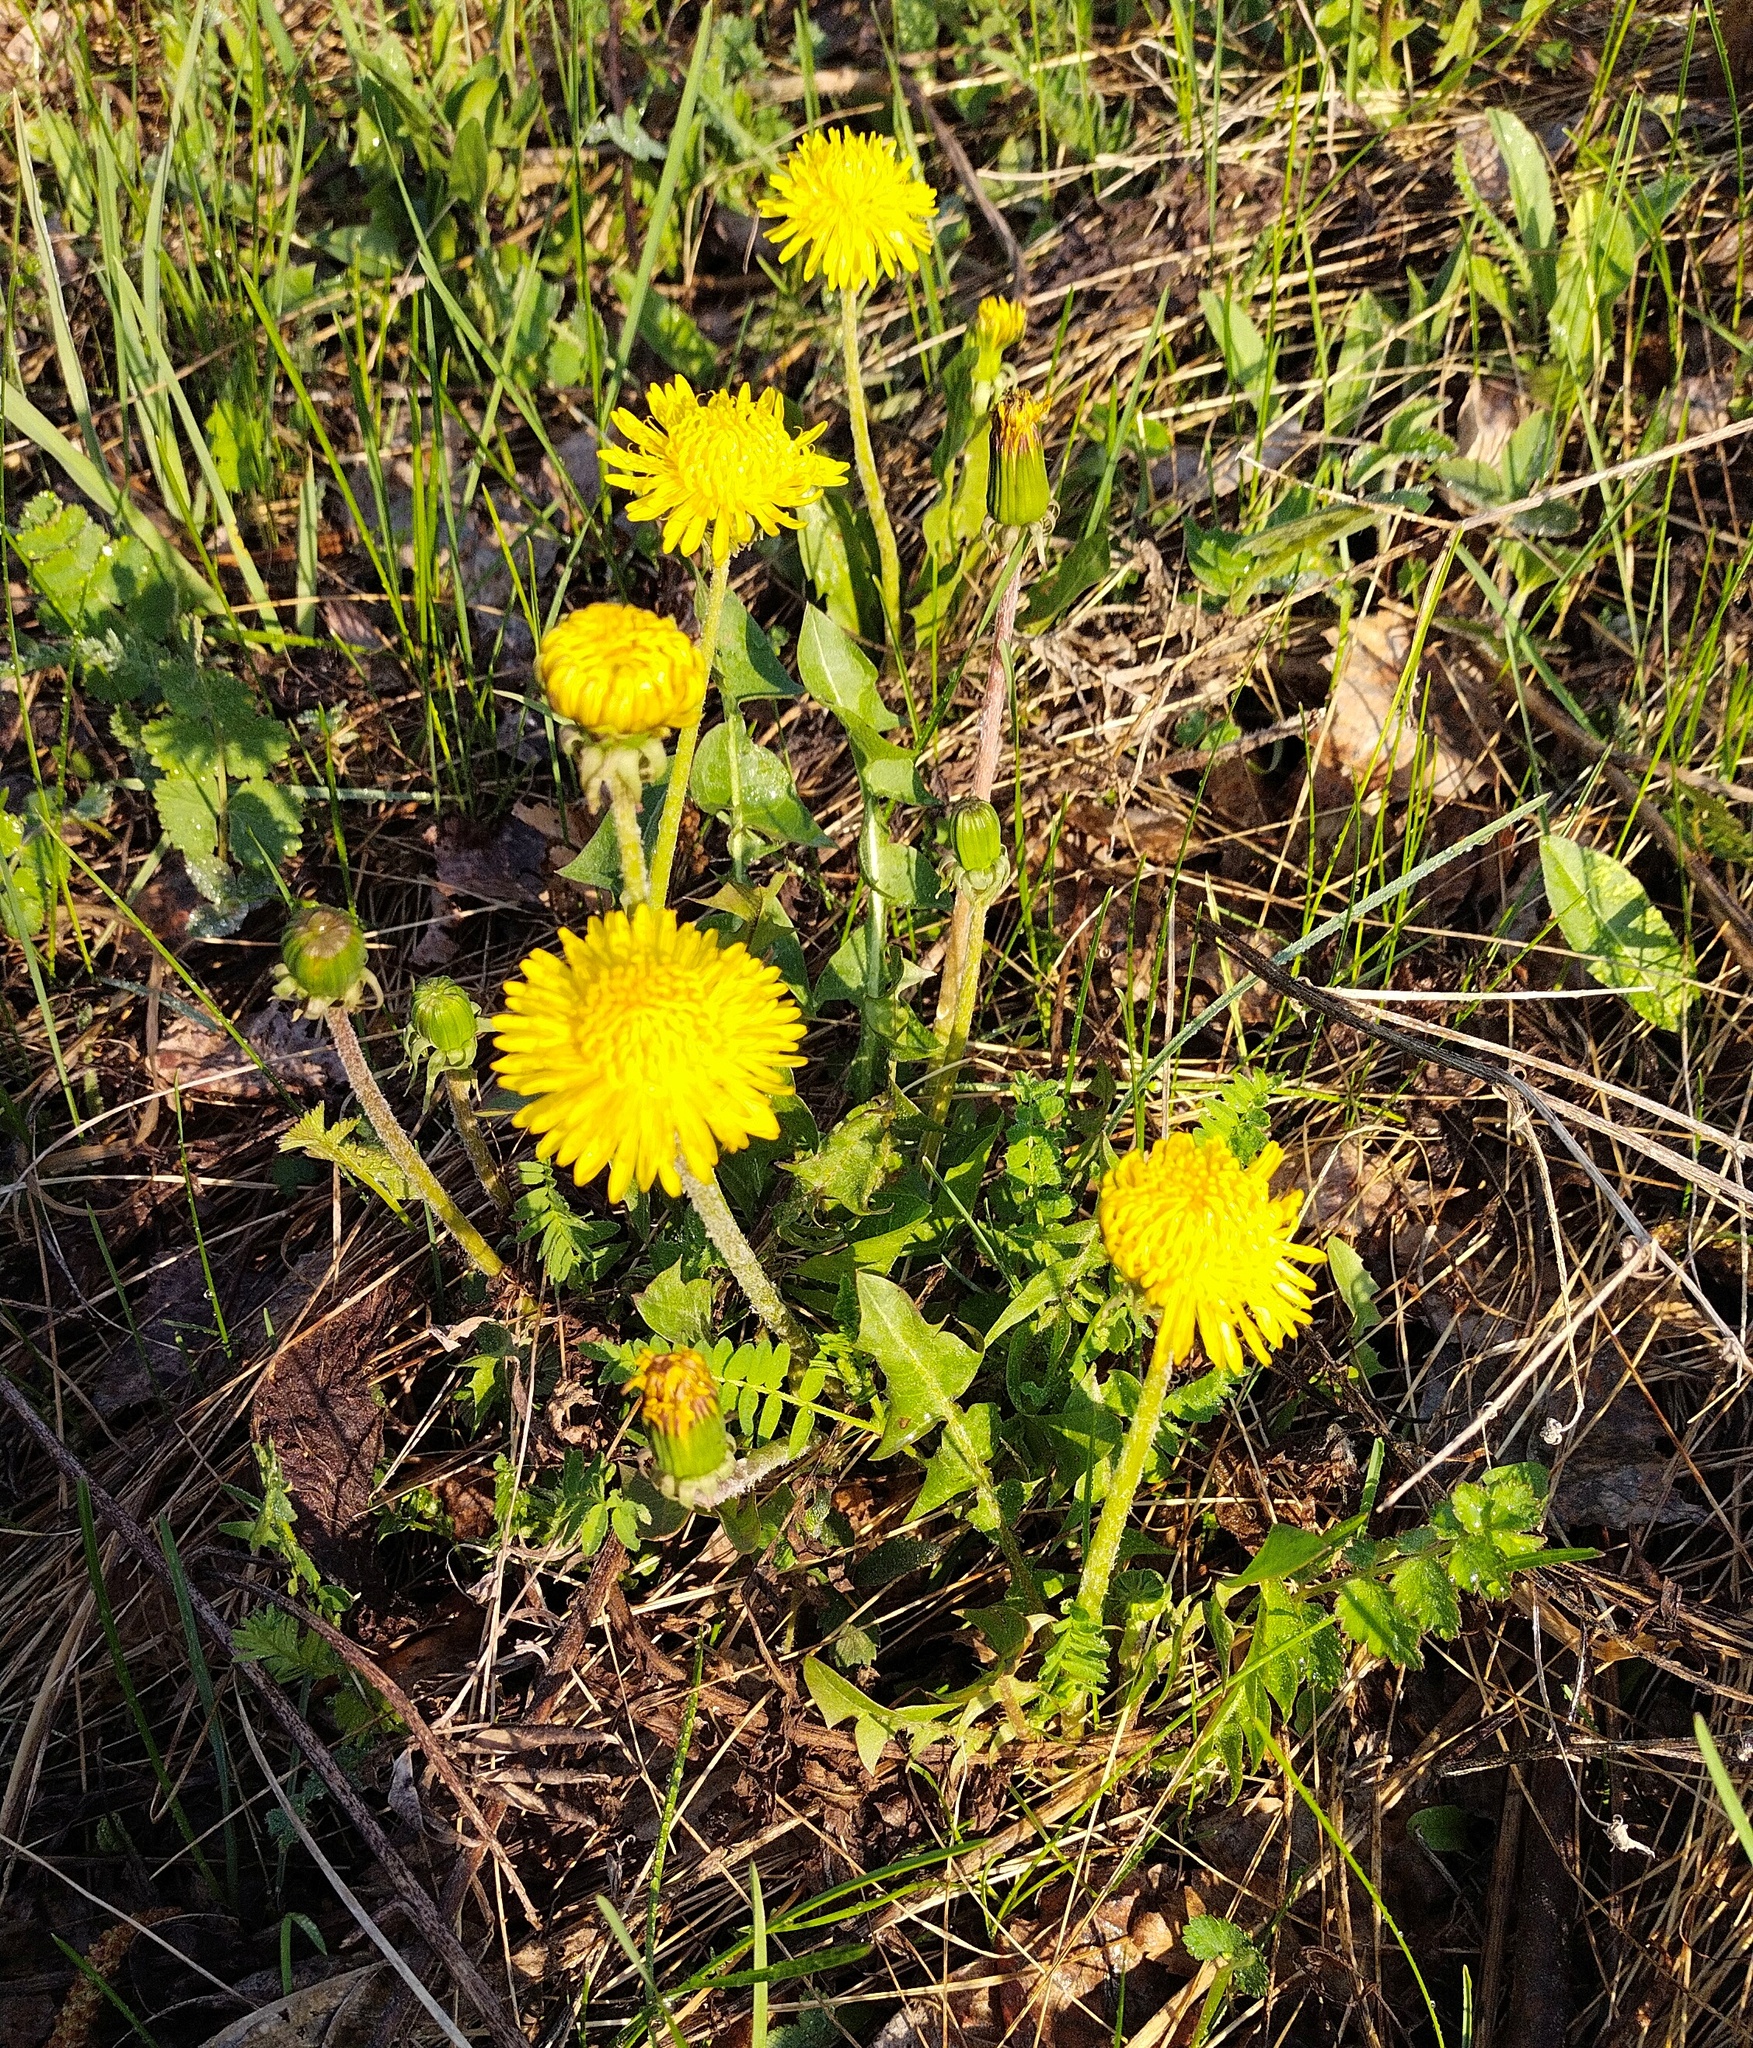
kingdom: Plantae
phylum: Tracheophyta
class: Magnoliopsida
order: Asterales
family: Asteraceae
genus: Taraxacum
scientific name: Taraxacum officinale
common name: Common dandelion
